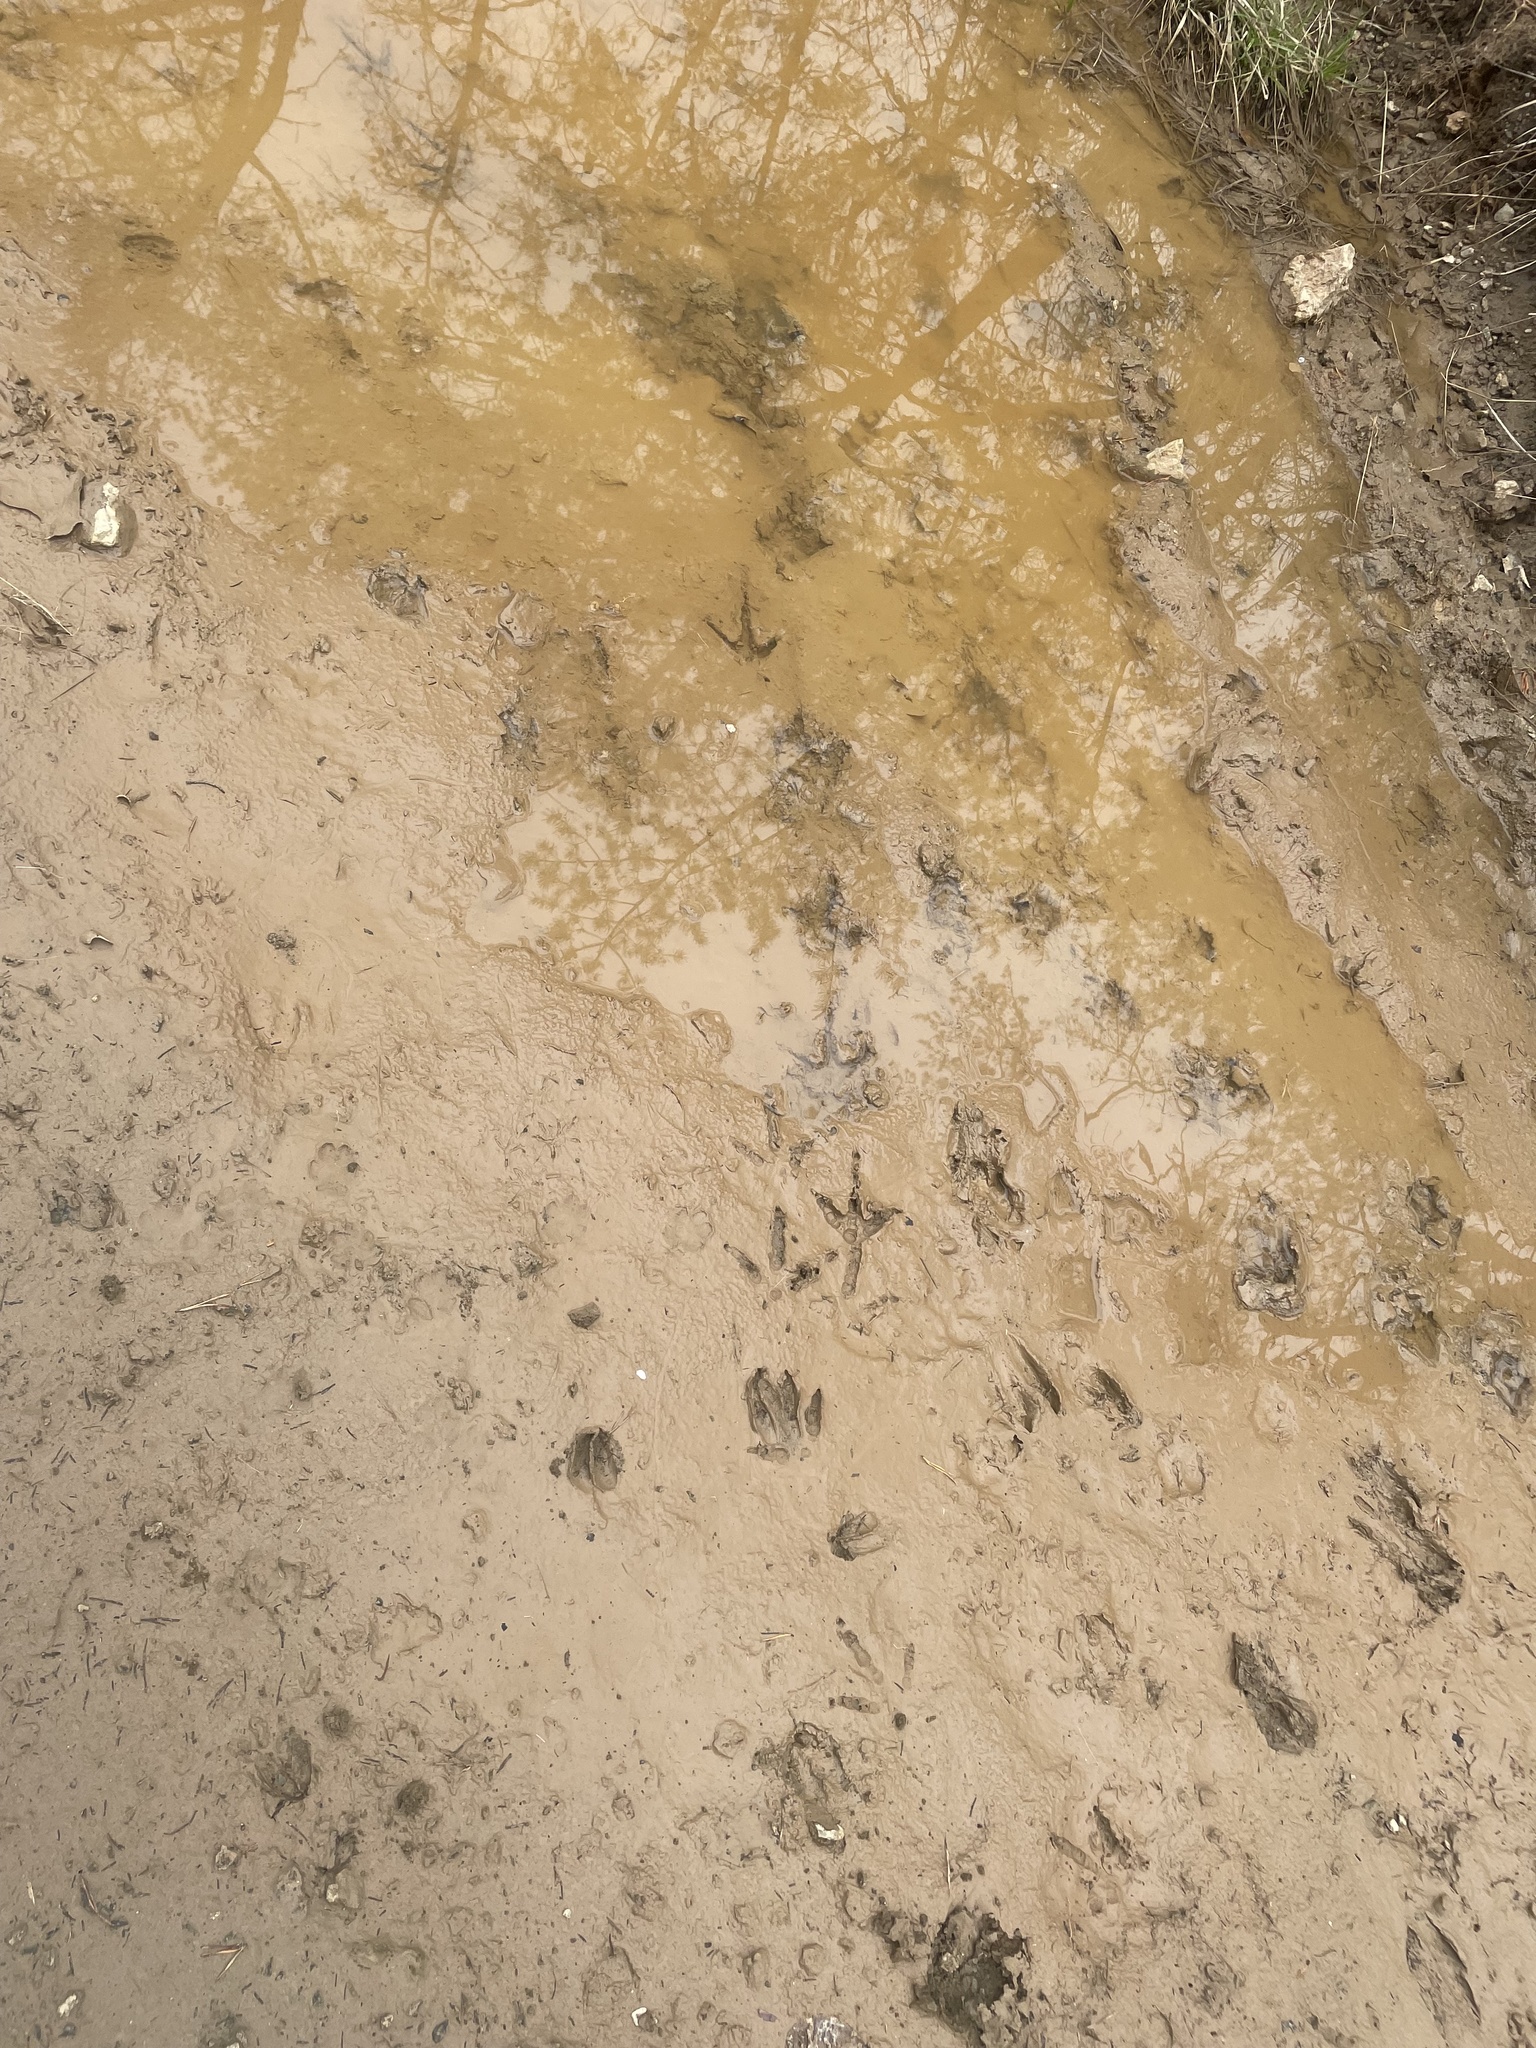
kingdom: Animalia
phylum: Chordata
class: Aves
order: Galliformes
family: Phasianidae
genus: Meleagris
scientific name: Meleagris gallopavo
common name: Wild turkey
